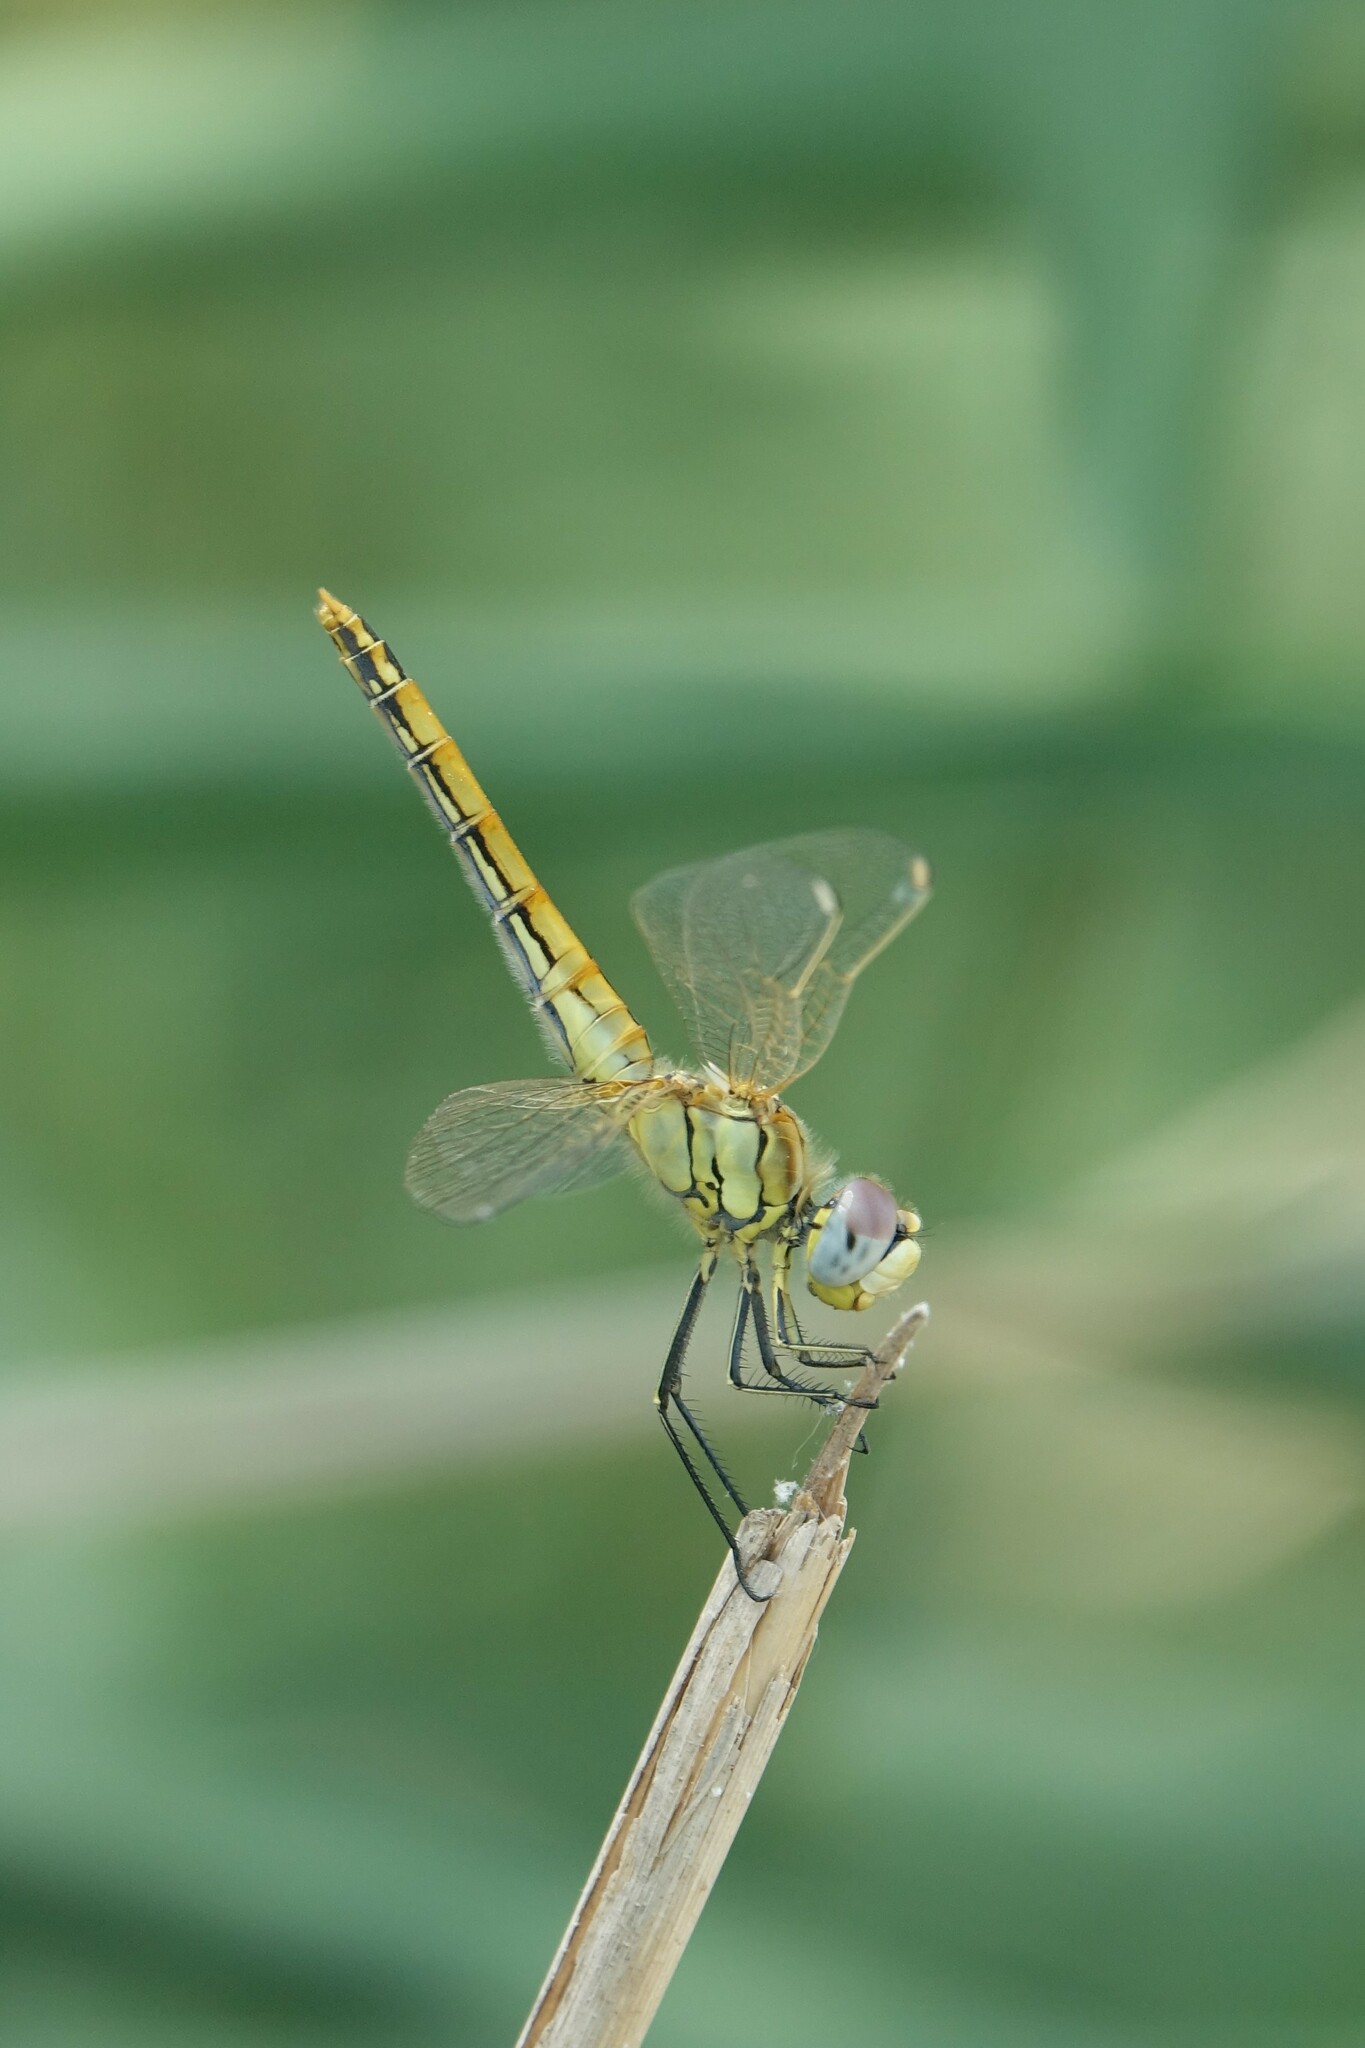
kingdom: Animalia
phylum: Arthropoda
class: Insecta
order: Odonata
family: Libellulidae
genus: Sympetrum
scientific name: Sympetrum fonscolombii
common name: Red-veined darter
